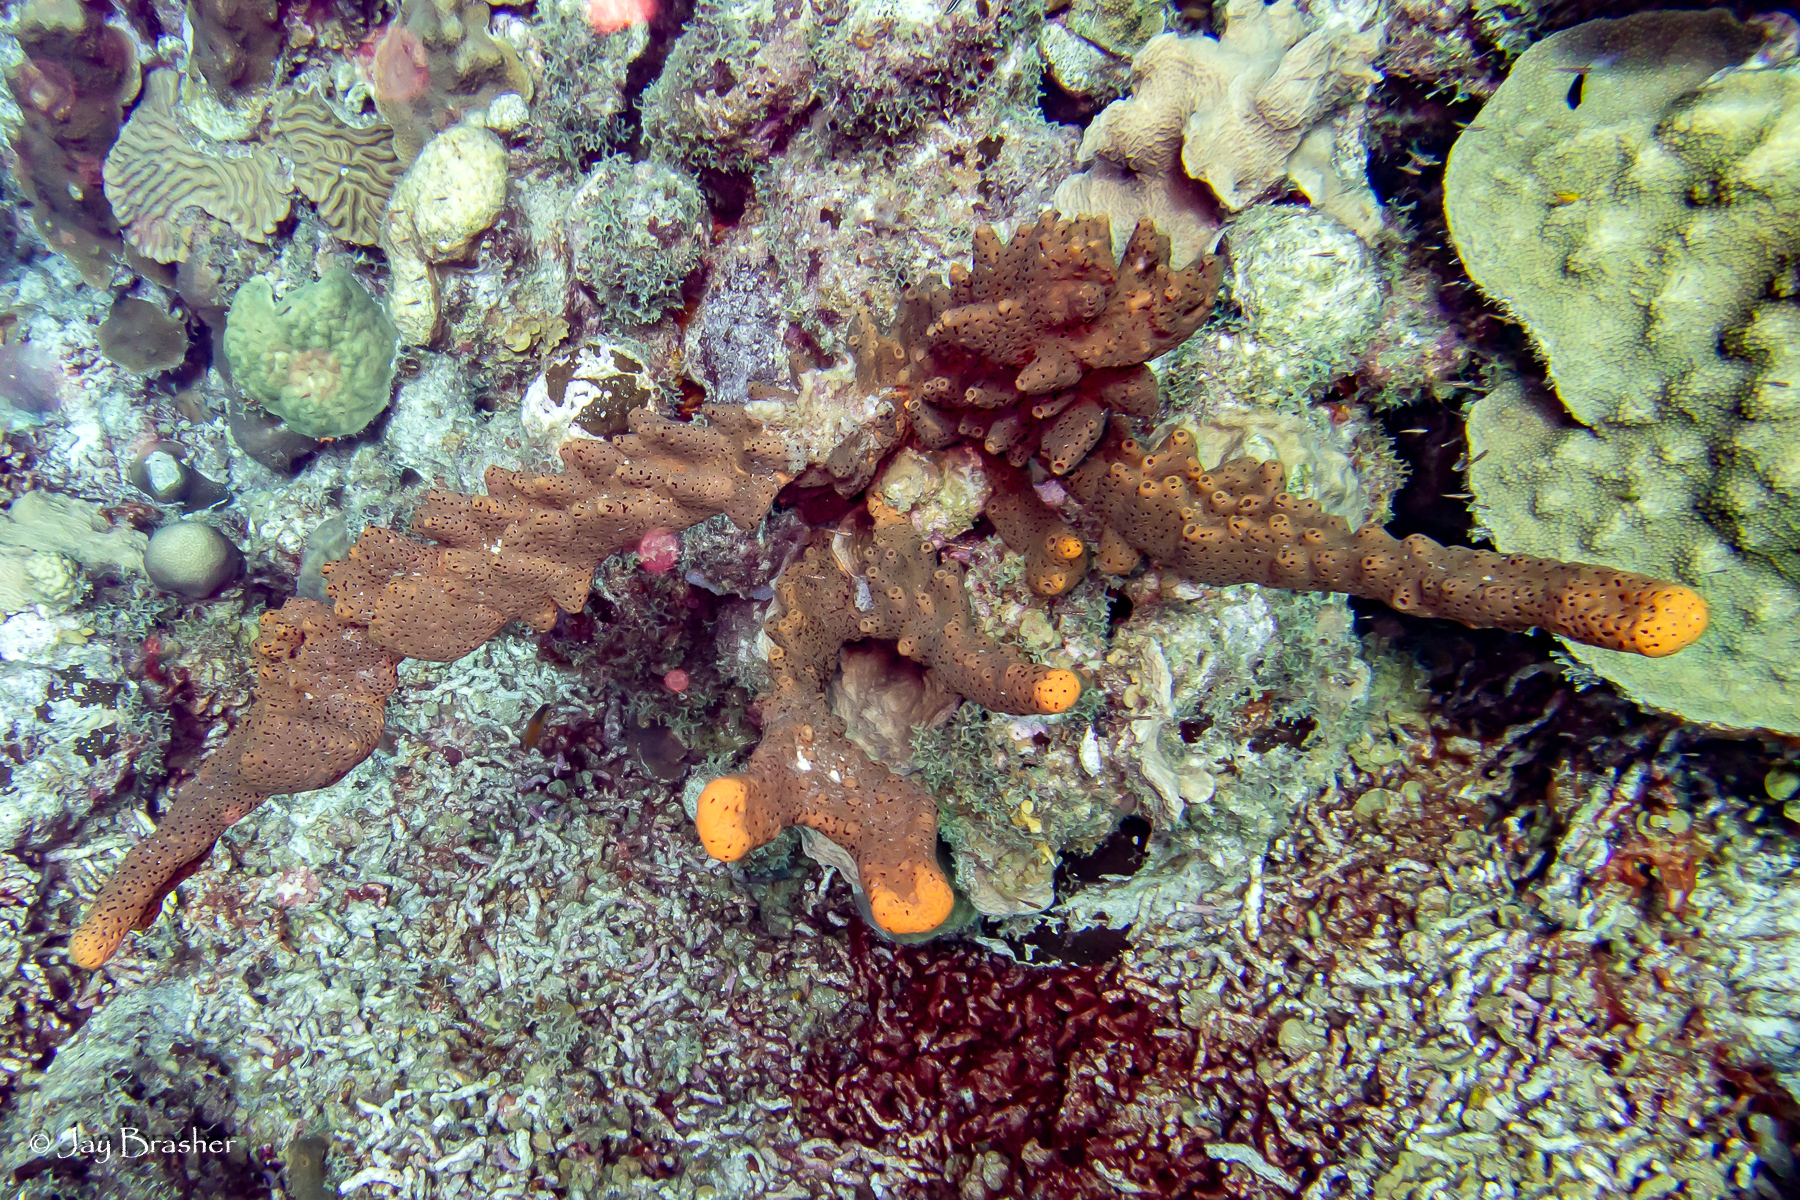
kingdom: Animalia
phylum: Porifera
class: Demospongiae
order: Agelasida
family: Agelasidae
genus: Agelas
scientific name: Agelas conifera
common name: Brown tube sponge
